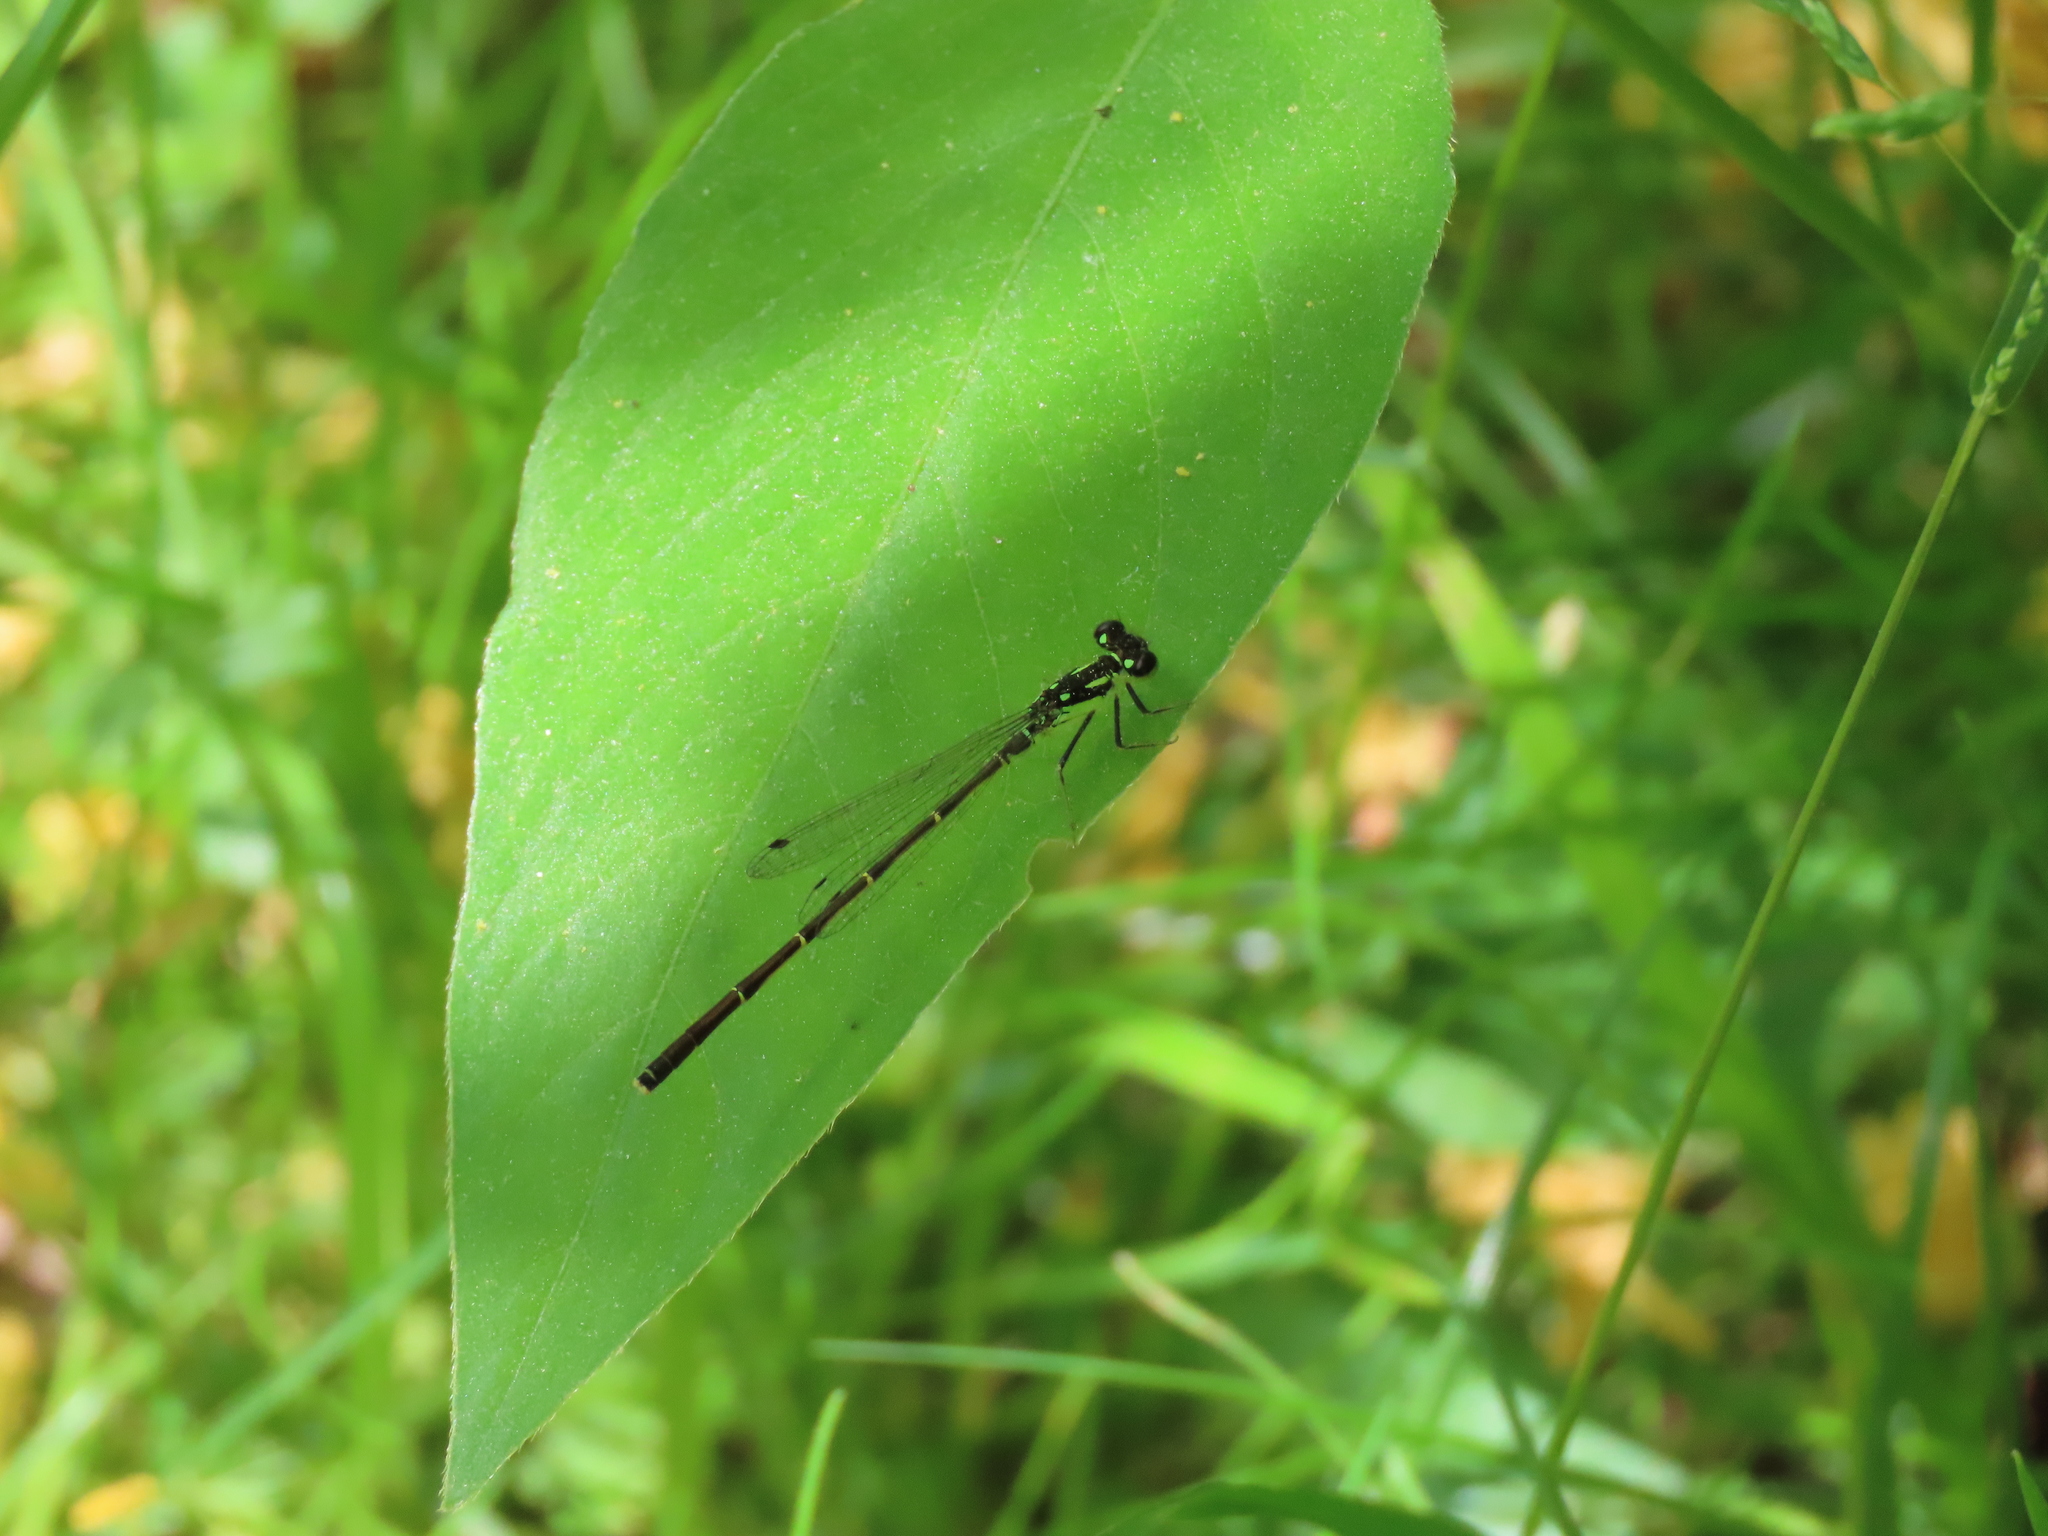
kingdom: Animalia
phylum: Arthropoda
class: Insecta
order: Odonata
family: Coenagrionidae
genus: Ischnura
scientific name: Ischnura posita
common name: Fragile forktail
